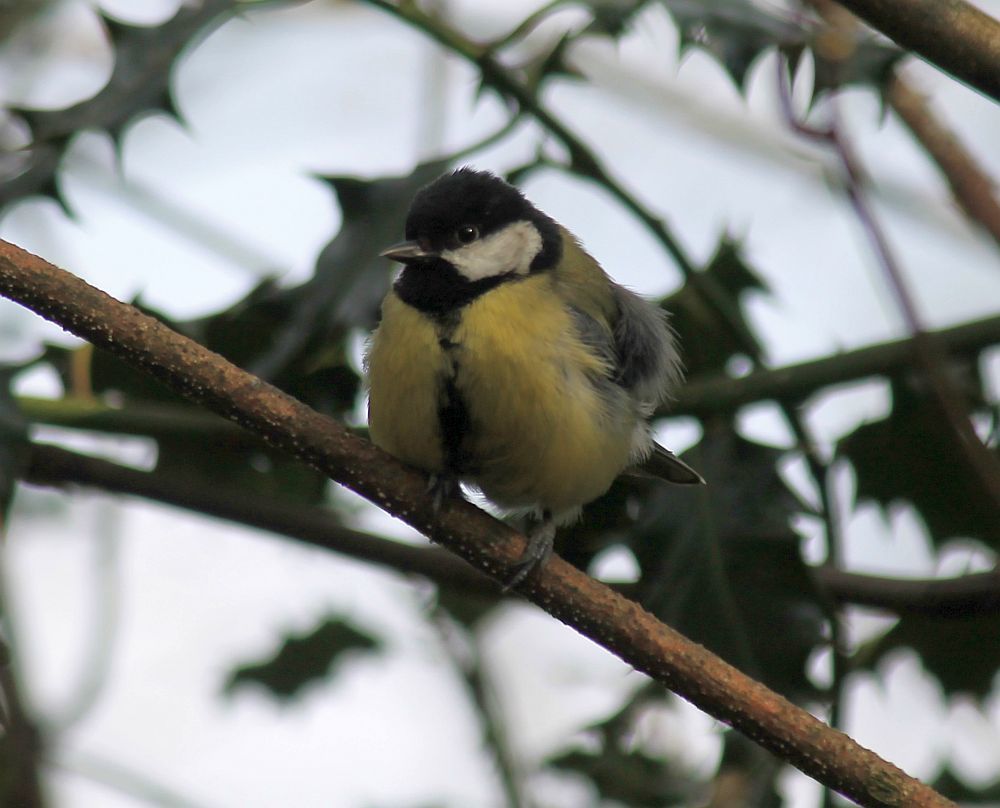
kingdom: Animalia
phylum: Chordata
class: Aves
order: Passeriformes
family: Paridae
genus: Parus
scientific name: Parus major
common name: Great tit
